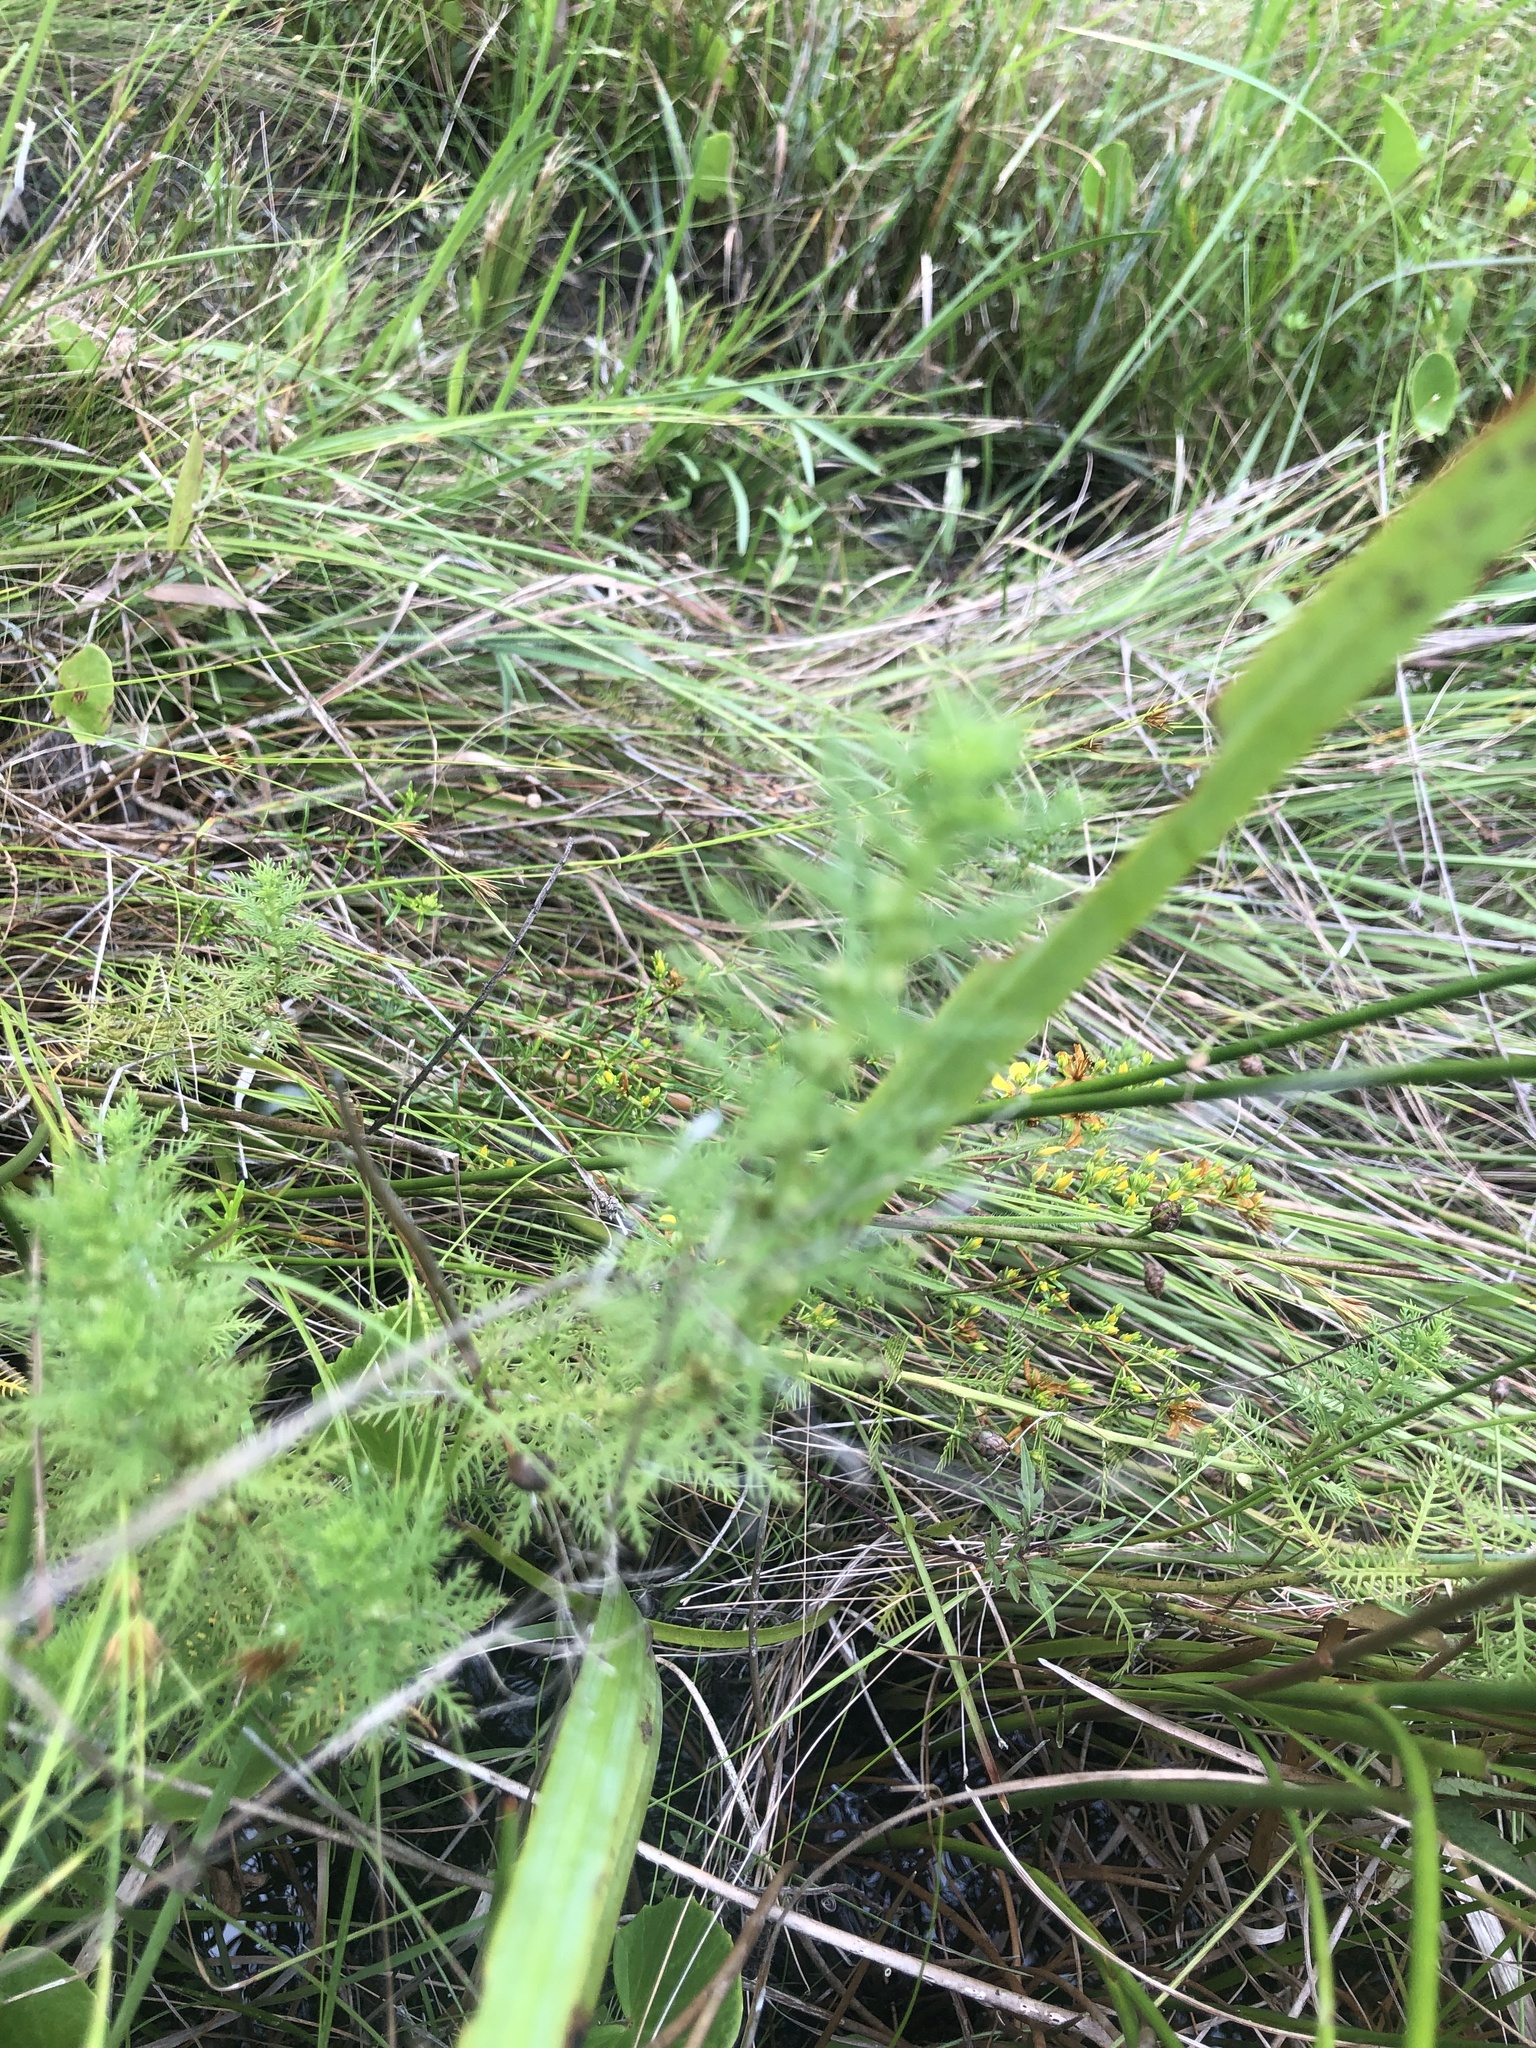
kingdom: Plantae
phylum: Tracheophyta
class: Magnoliopsida
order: Saxifragales
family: Haloragaceae
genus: Proserpinaca
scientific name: Proserpinaca pectinata
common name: Comb-leaved mermaidweed
